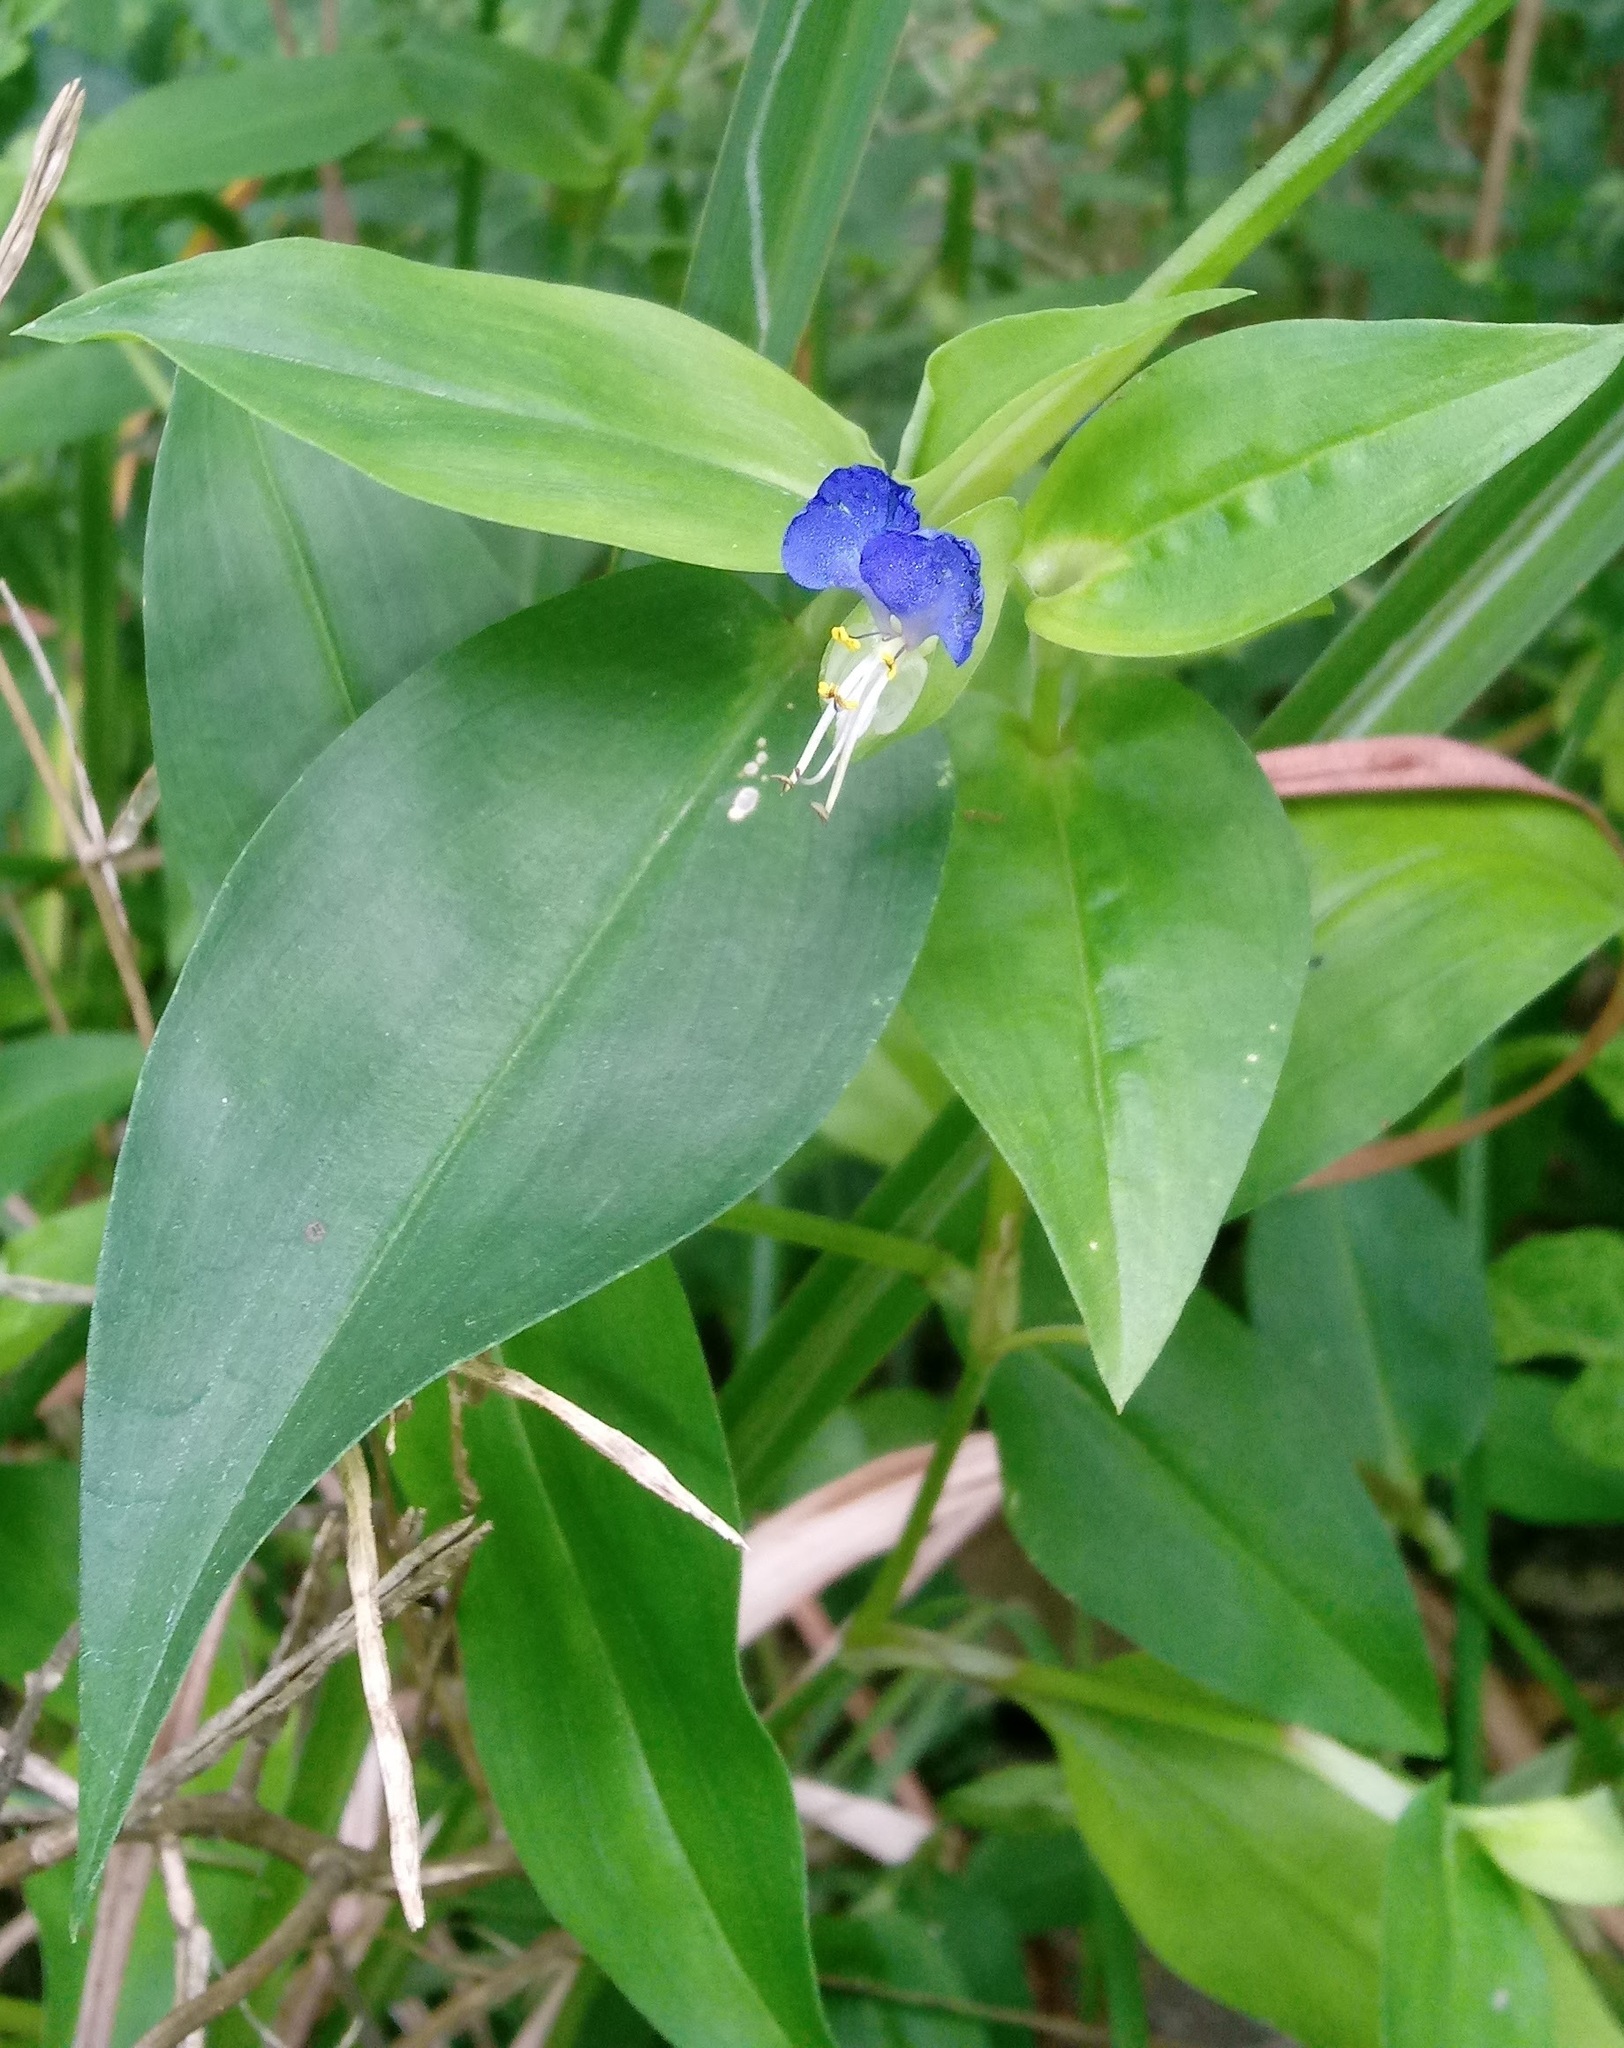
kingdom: Plantae
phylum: Tracheophyta
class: Liliopsida
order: Commelinales
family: Commelinaceae
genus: Commelina
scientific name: Commelina communis
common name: Asiatic dayflower
